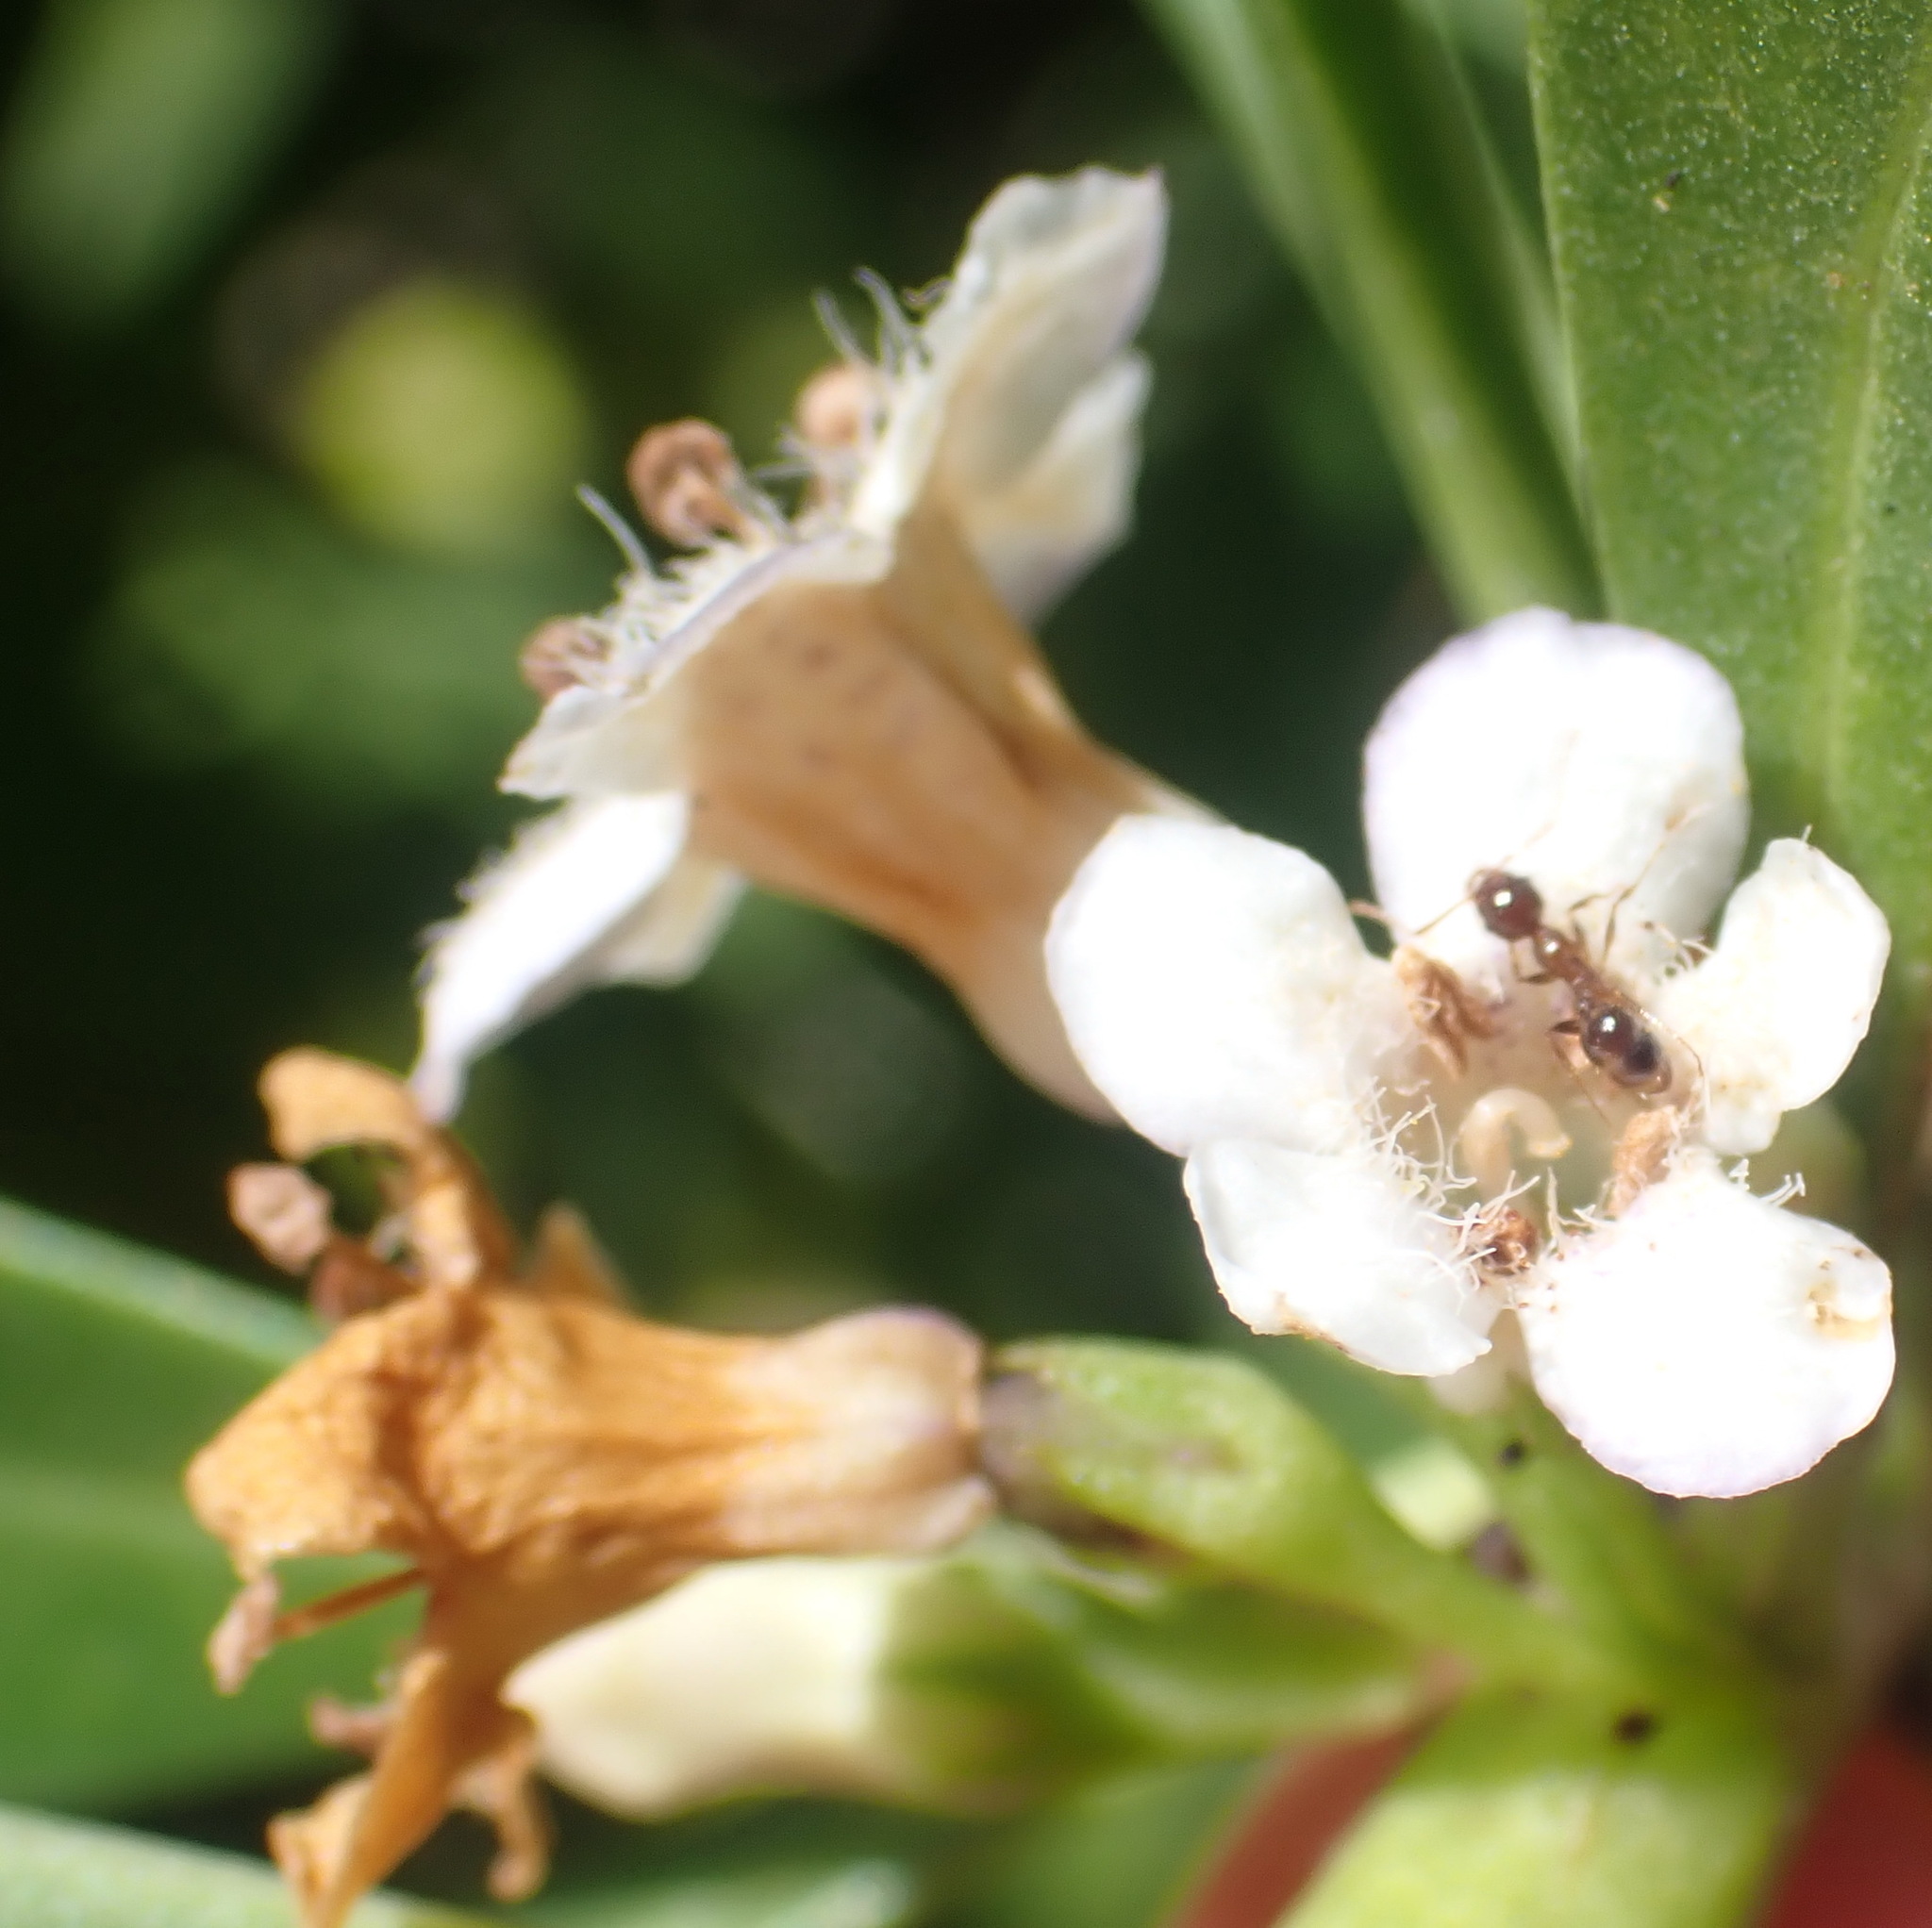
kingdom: Plantae
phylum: Tracheophyta
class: Magnoliopsida
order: Lamiales
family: Scrophulariaceae
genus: Myoporum
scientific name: Myoporum laetum
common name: Ngaio tree
